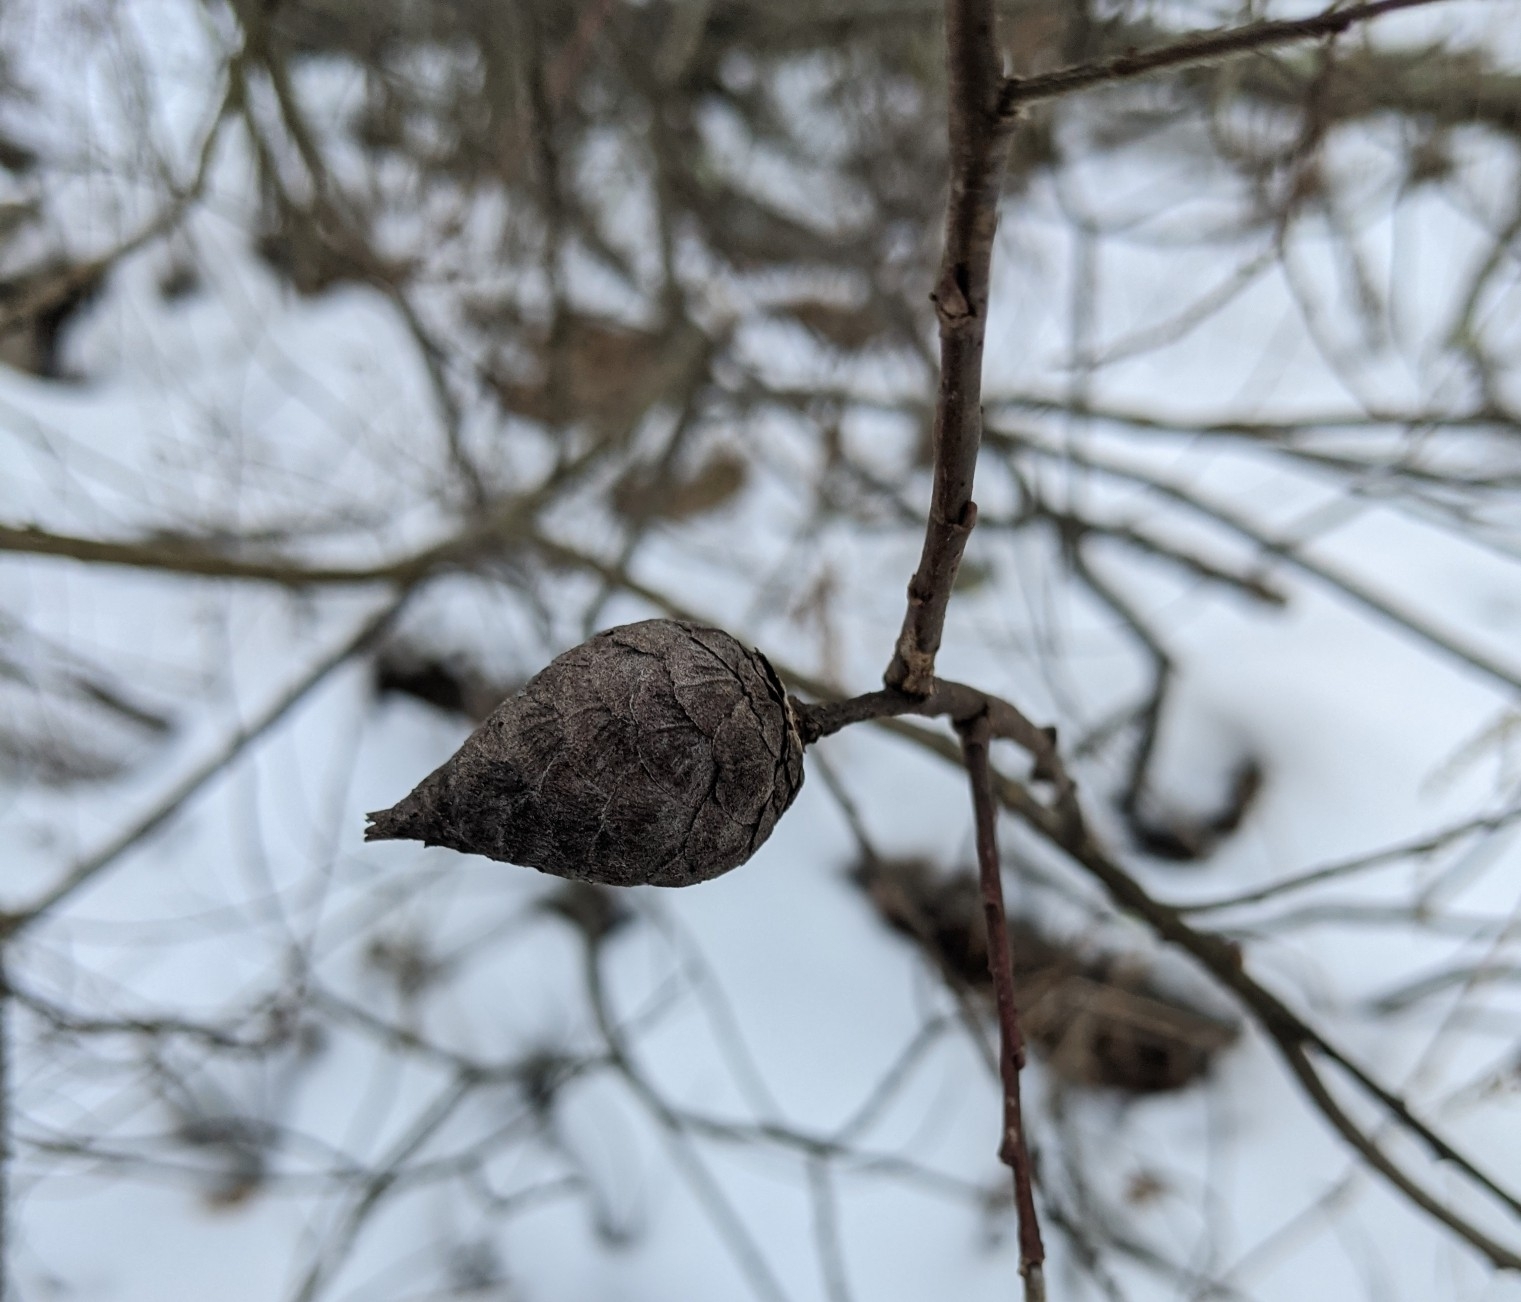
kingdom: Animalia
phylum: Arthropoda
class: Insecta
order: Diptera
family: Cecidomyiidae
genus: Rabdophaga
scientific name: Rabdophaga strobiloides
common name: Willow pinecone gall midge
